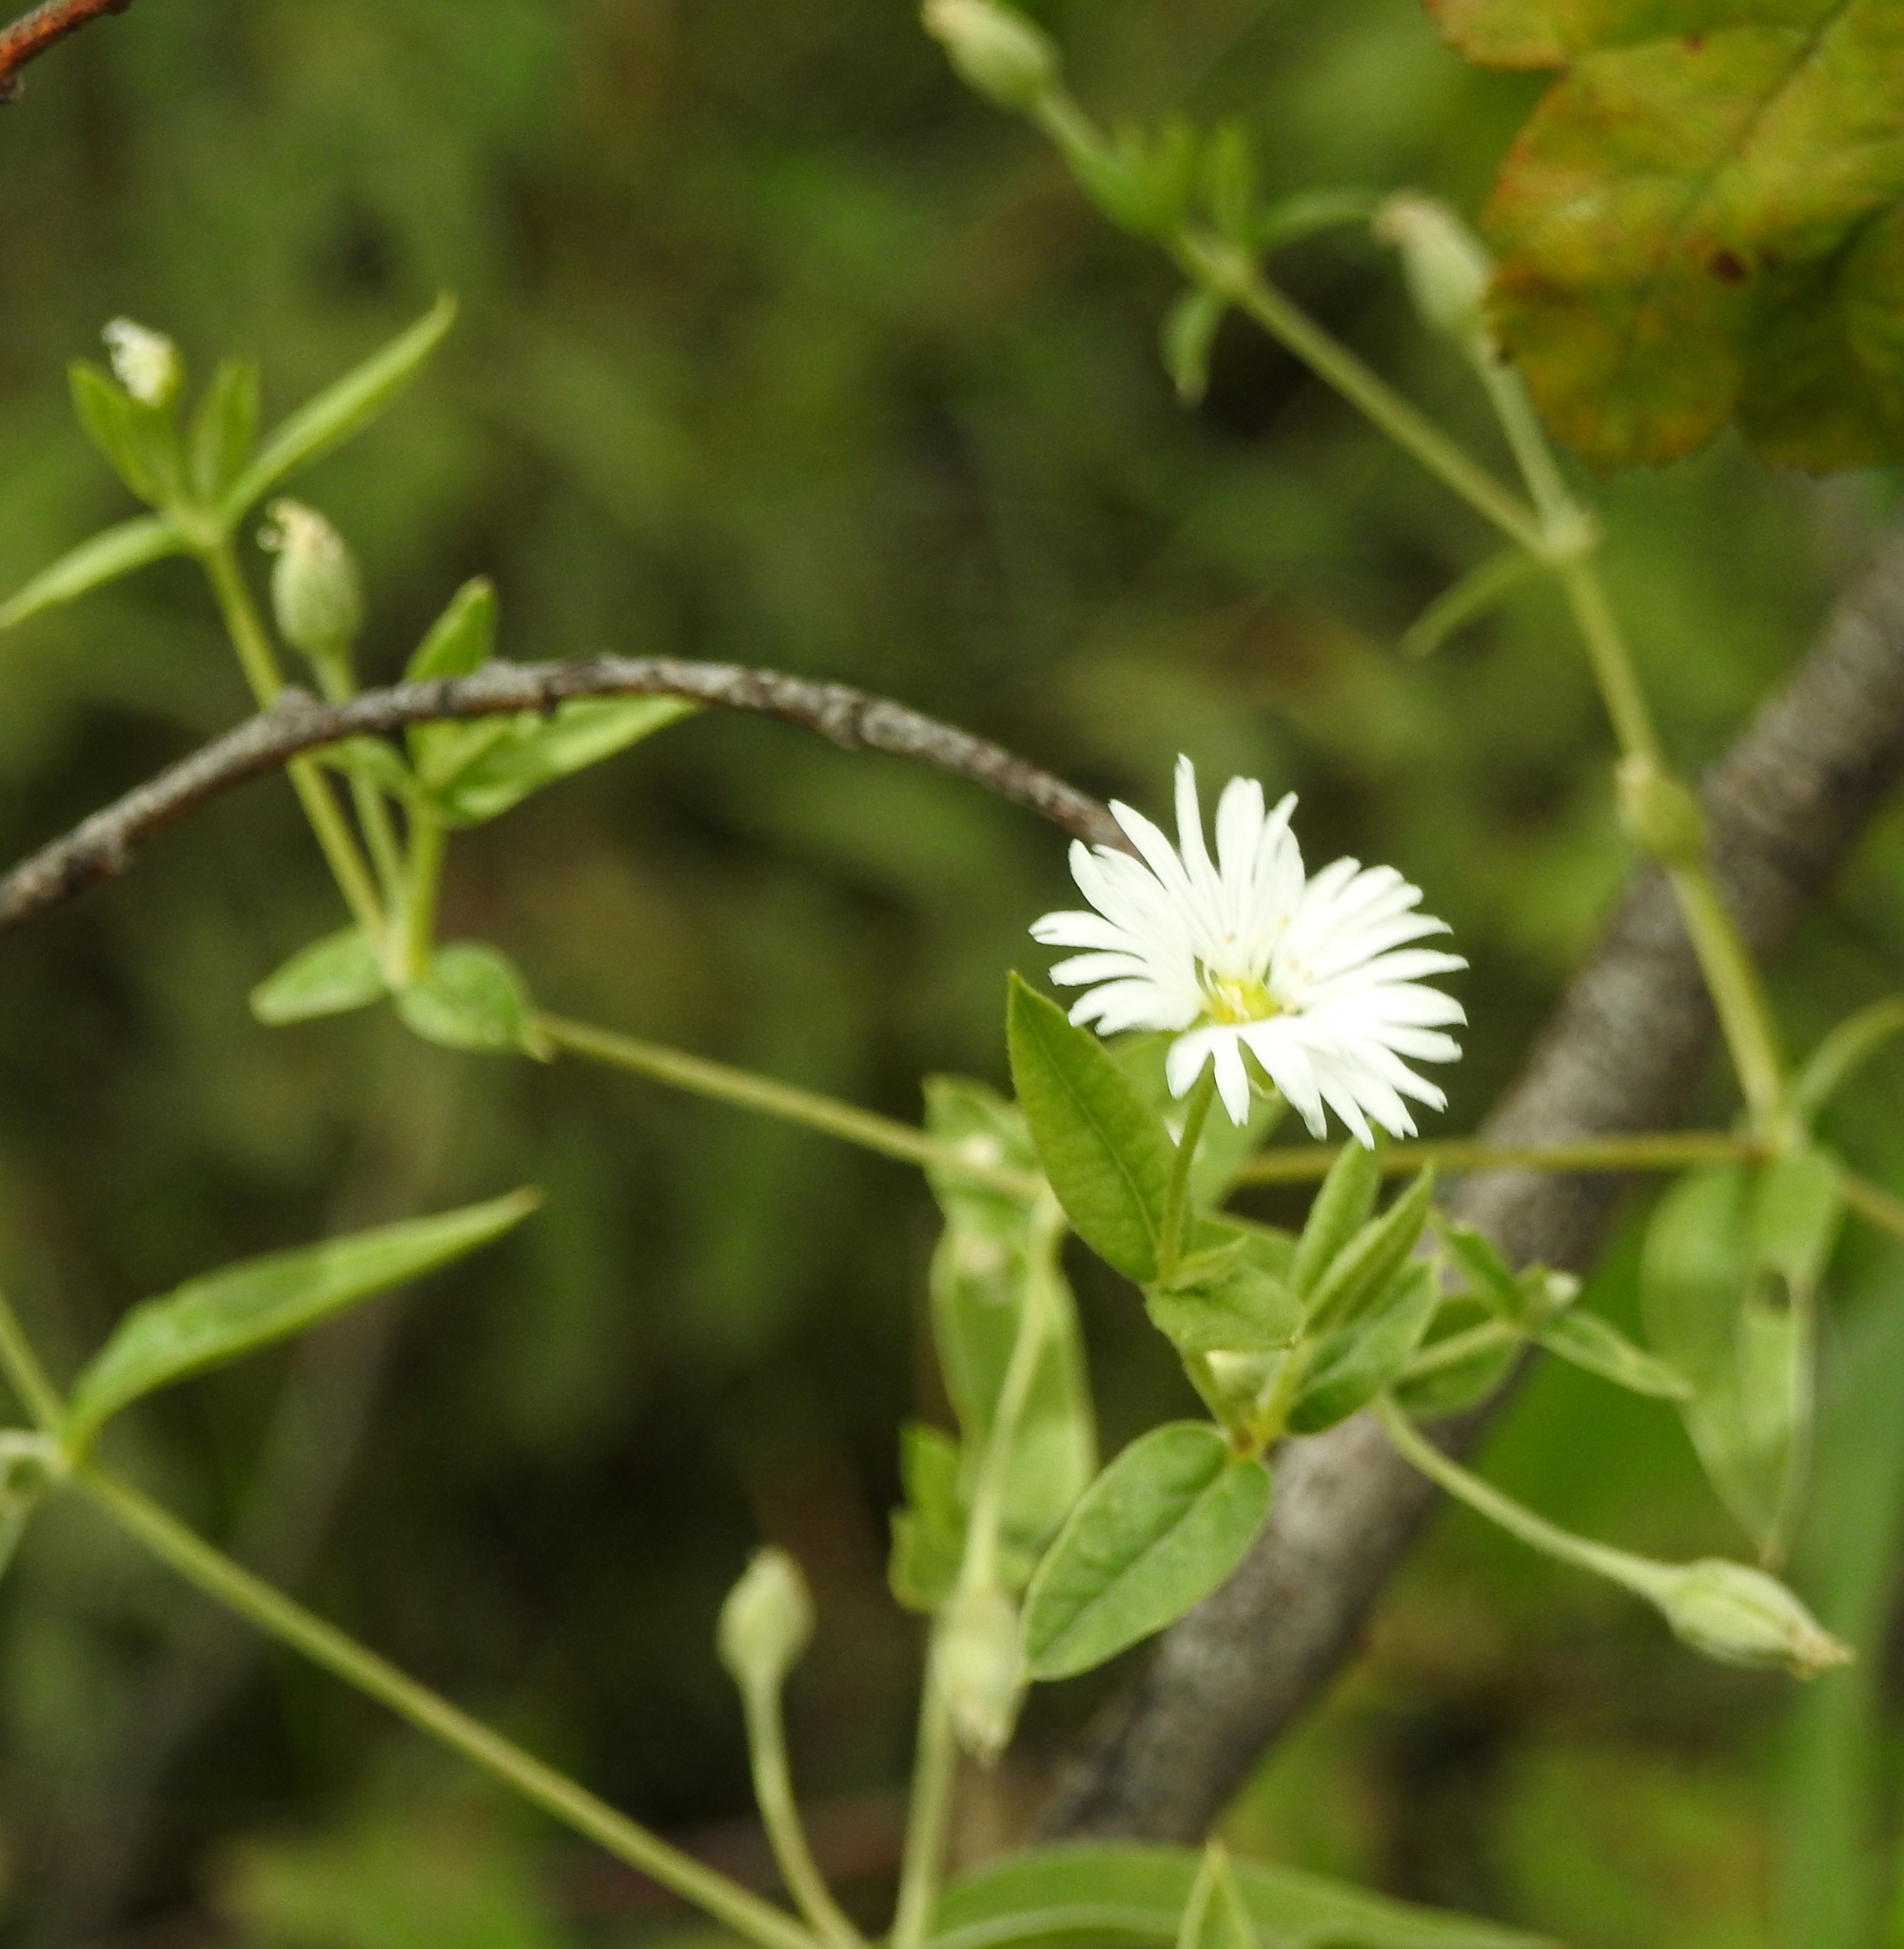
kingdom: Plantae
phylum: Tracheophyta
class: Magnoliopsida
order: Caryophyllales
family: Caryophyllaceae
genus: Stellaria
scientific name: Stellaria radians
